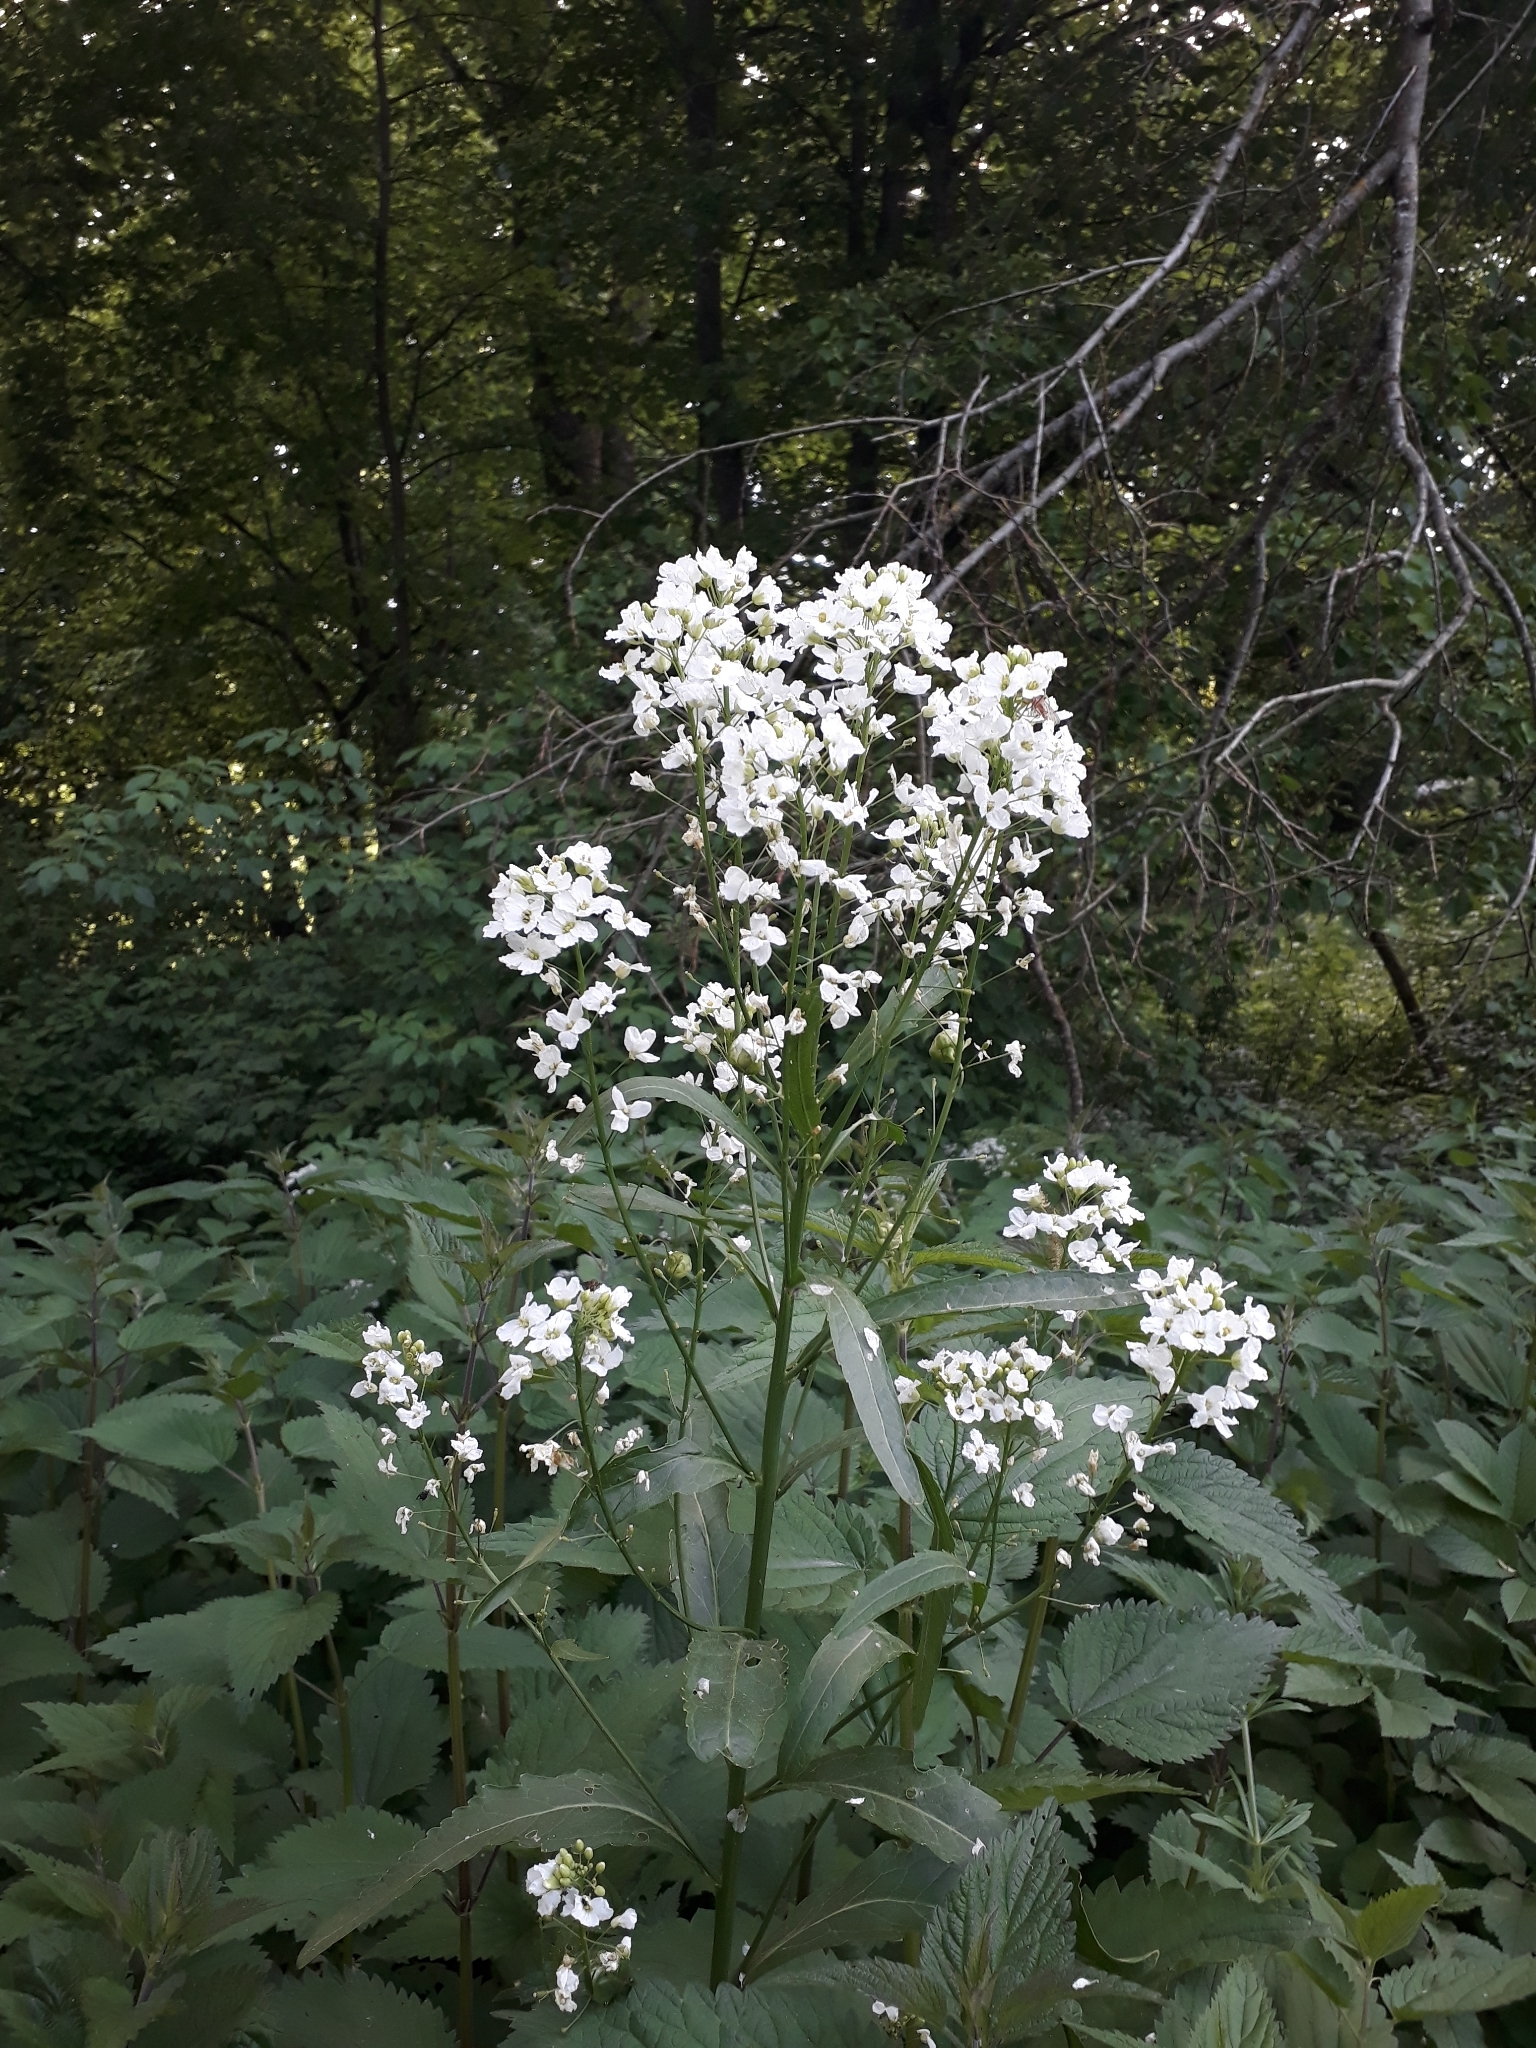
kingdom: Plantae
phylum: Tracheophyta
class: Magnoliopsida
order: Brassicales
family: Brassicaceae
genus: Armoracia
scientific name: Armoracia rusticana
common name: Horseradish
